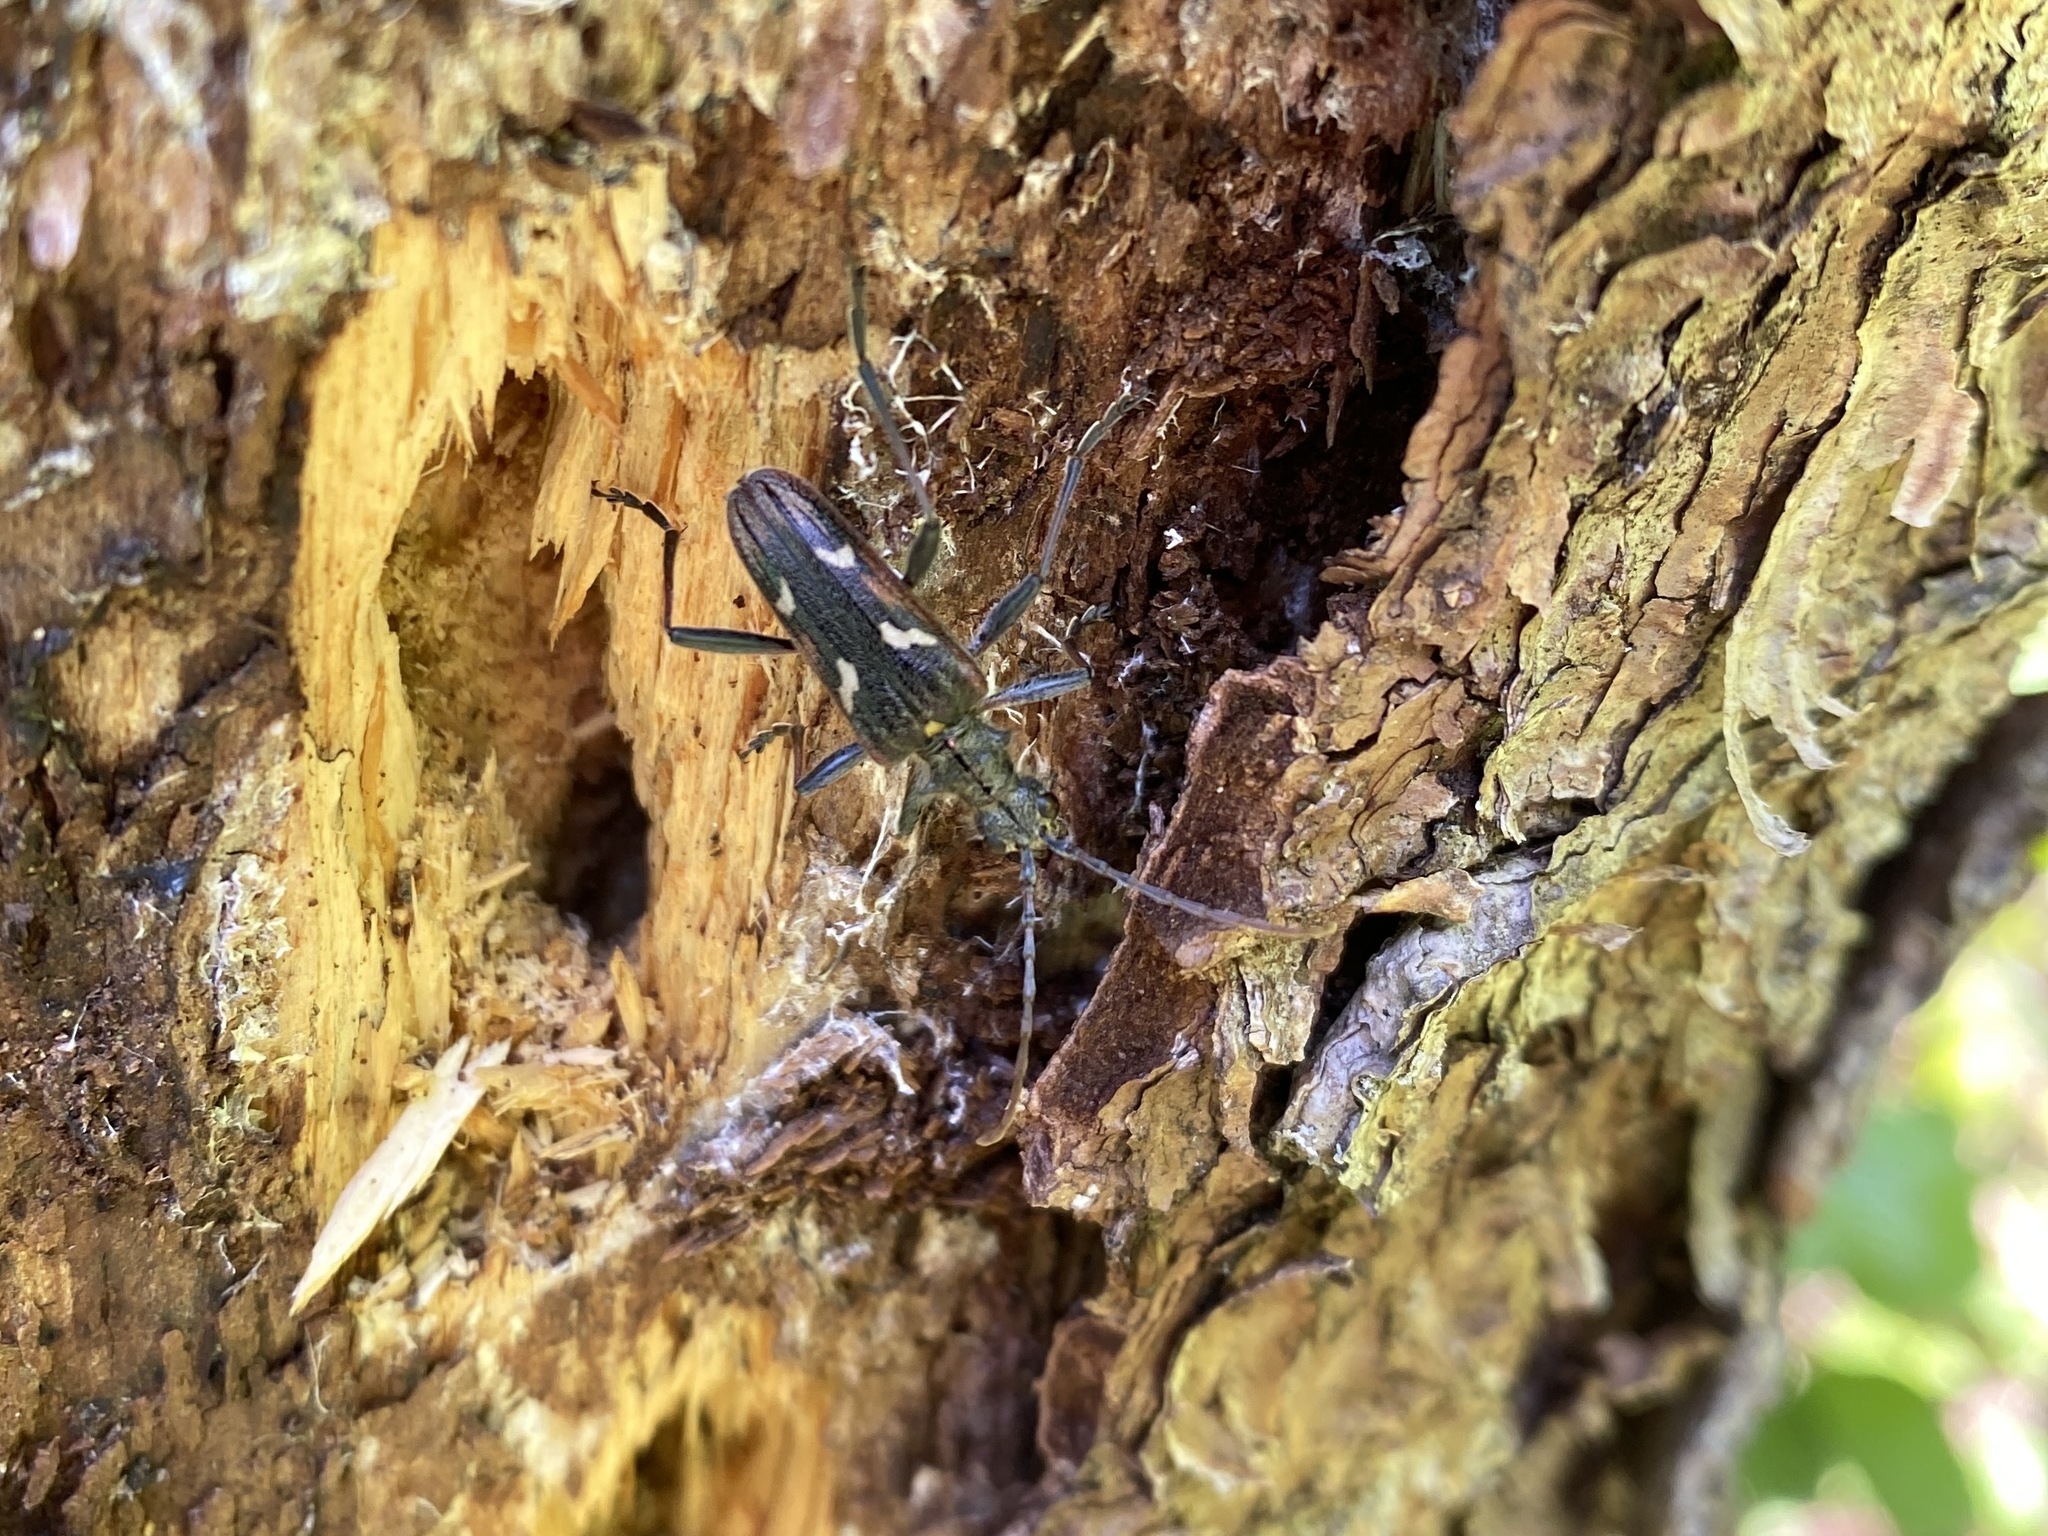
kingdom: Animalia
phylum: Arthropoda
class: Insecta
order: Coleoptera
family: Cerambycidae
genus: Rhagium
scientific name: Rhagium bifasciatum
